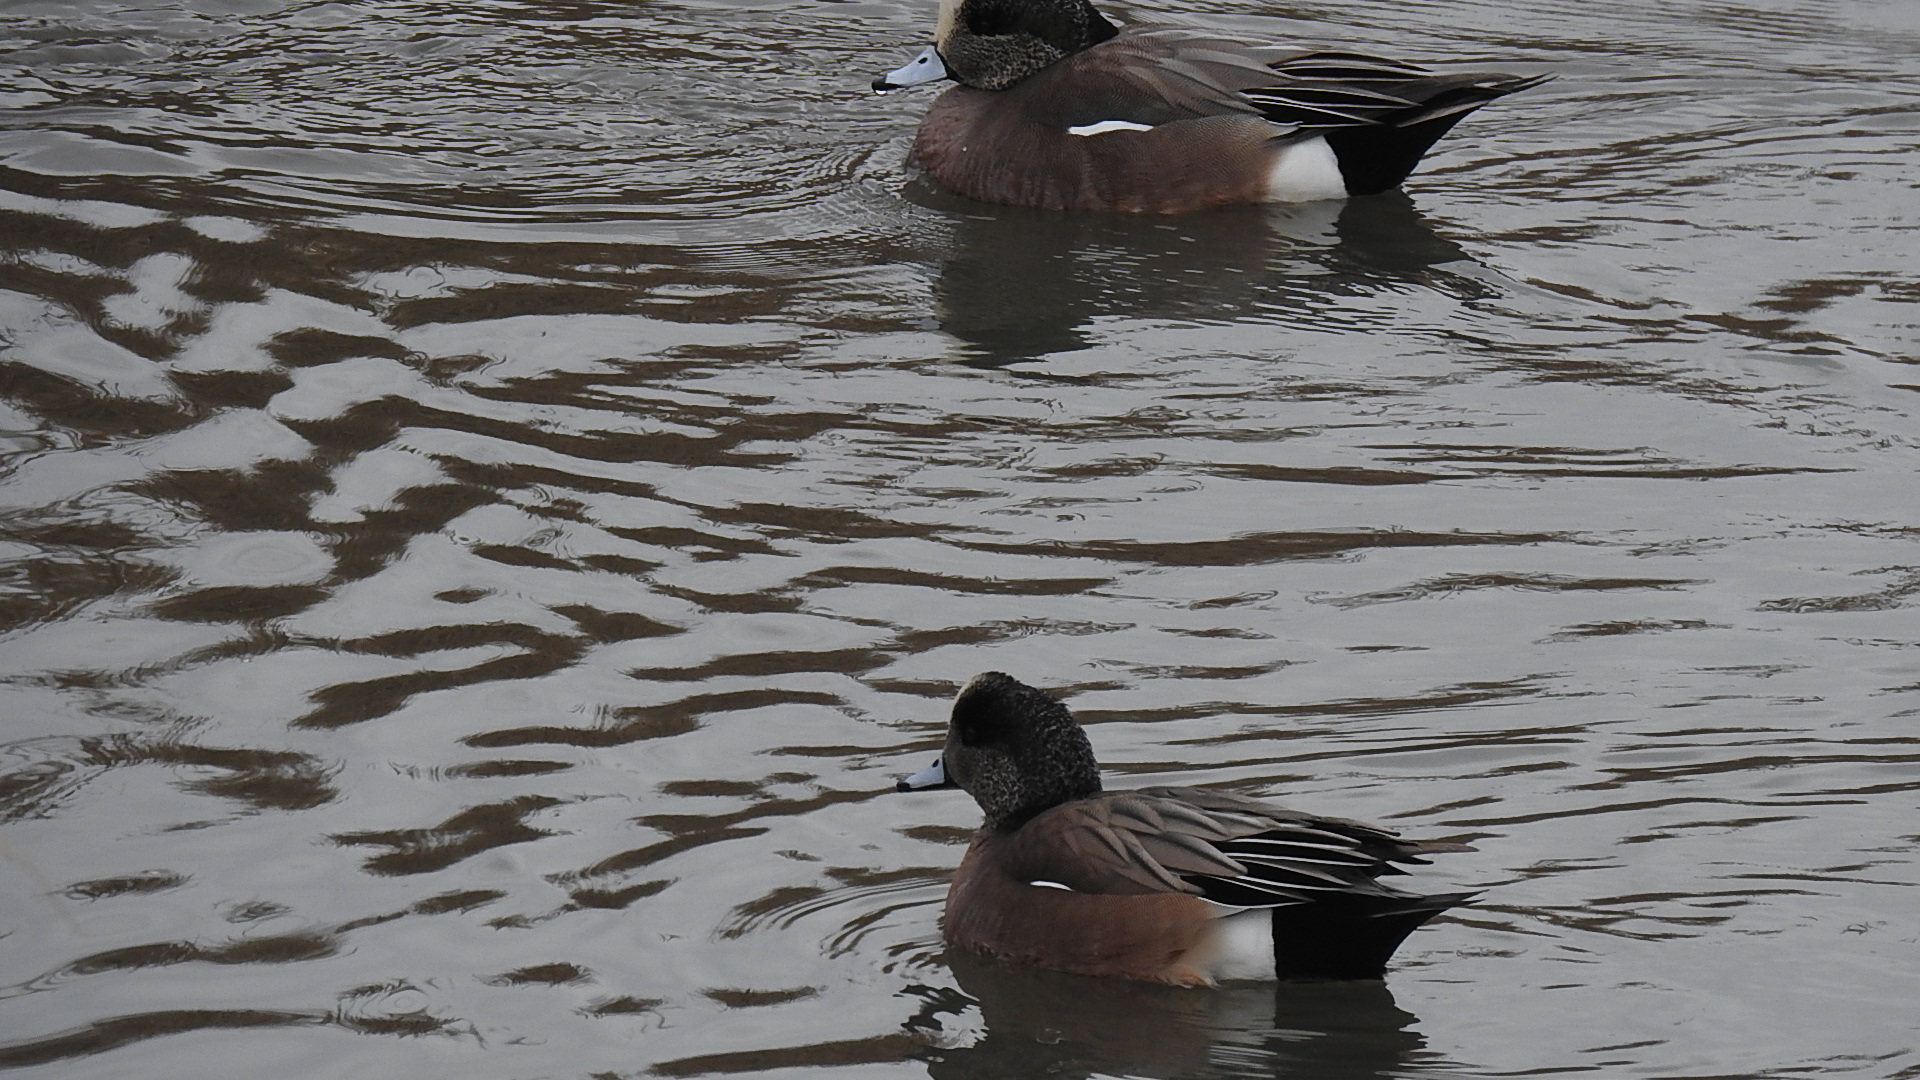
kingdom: Animalia
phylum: Chordata
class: Aves
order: Anseriformes
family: Anatidae
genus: Mareca
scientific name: Mareca americana
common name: American wigeon
